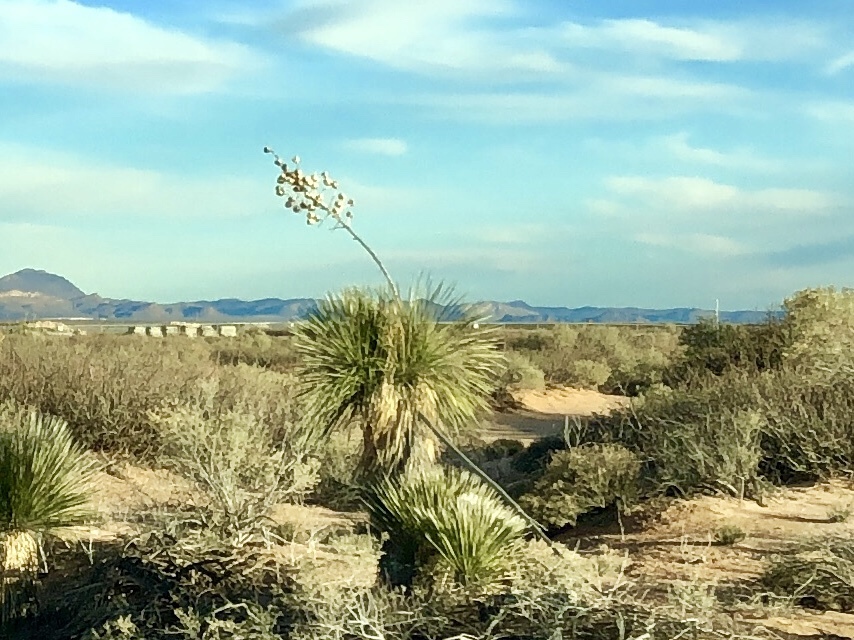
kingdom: Plantae
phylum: Tracheophyta
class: Liliopsida
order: Asparagales
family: Asparagaceae
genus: Yucca
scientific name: Yucca elata
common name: Palmella
